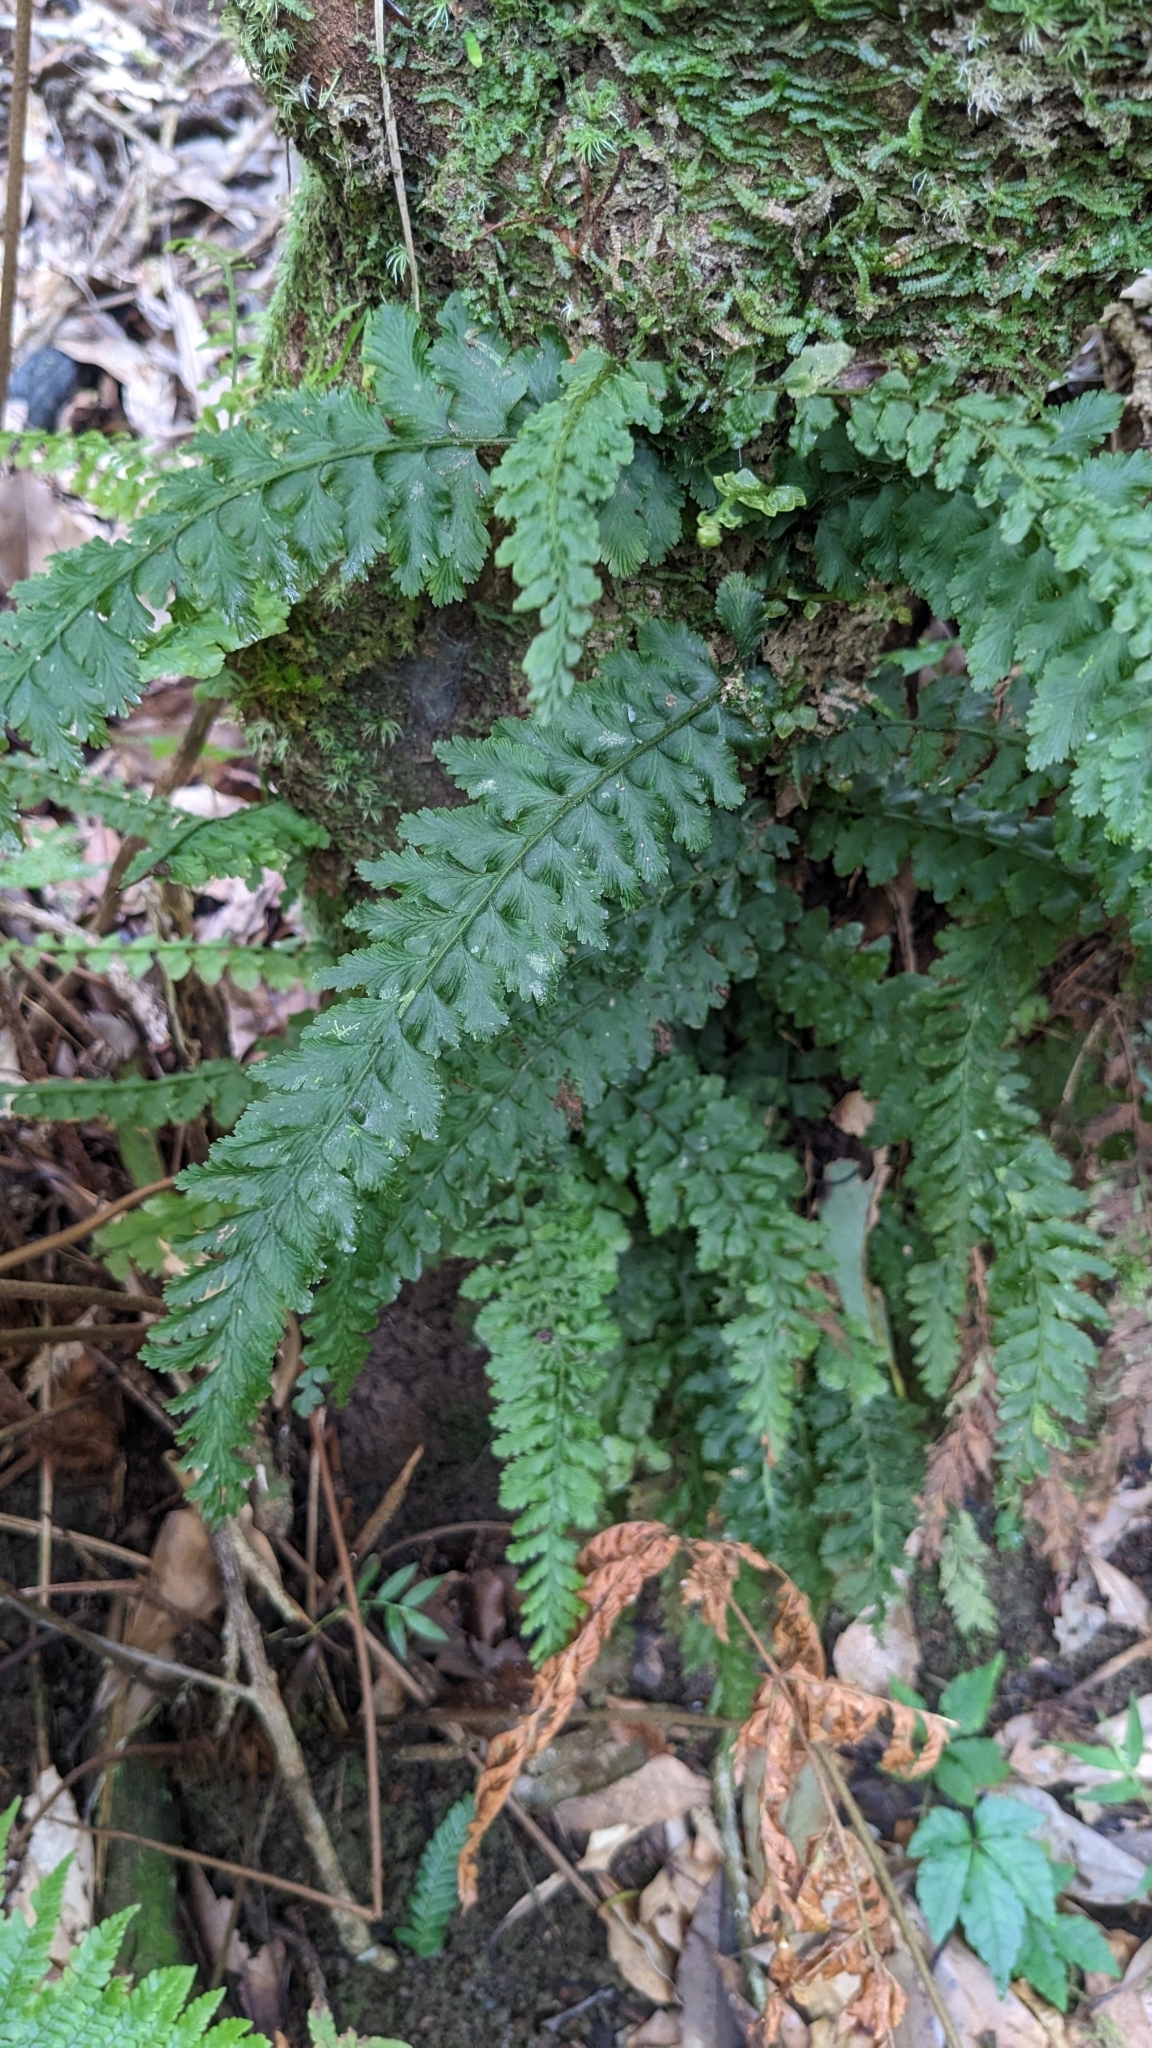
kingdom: Plantae
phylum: Tracheophyta
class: Polypodiopsida
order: Hymenophyllales
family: Hymenophyllaceae
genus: Vandenboschia
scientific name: Vandenboschia auriculata
